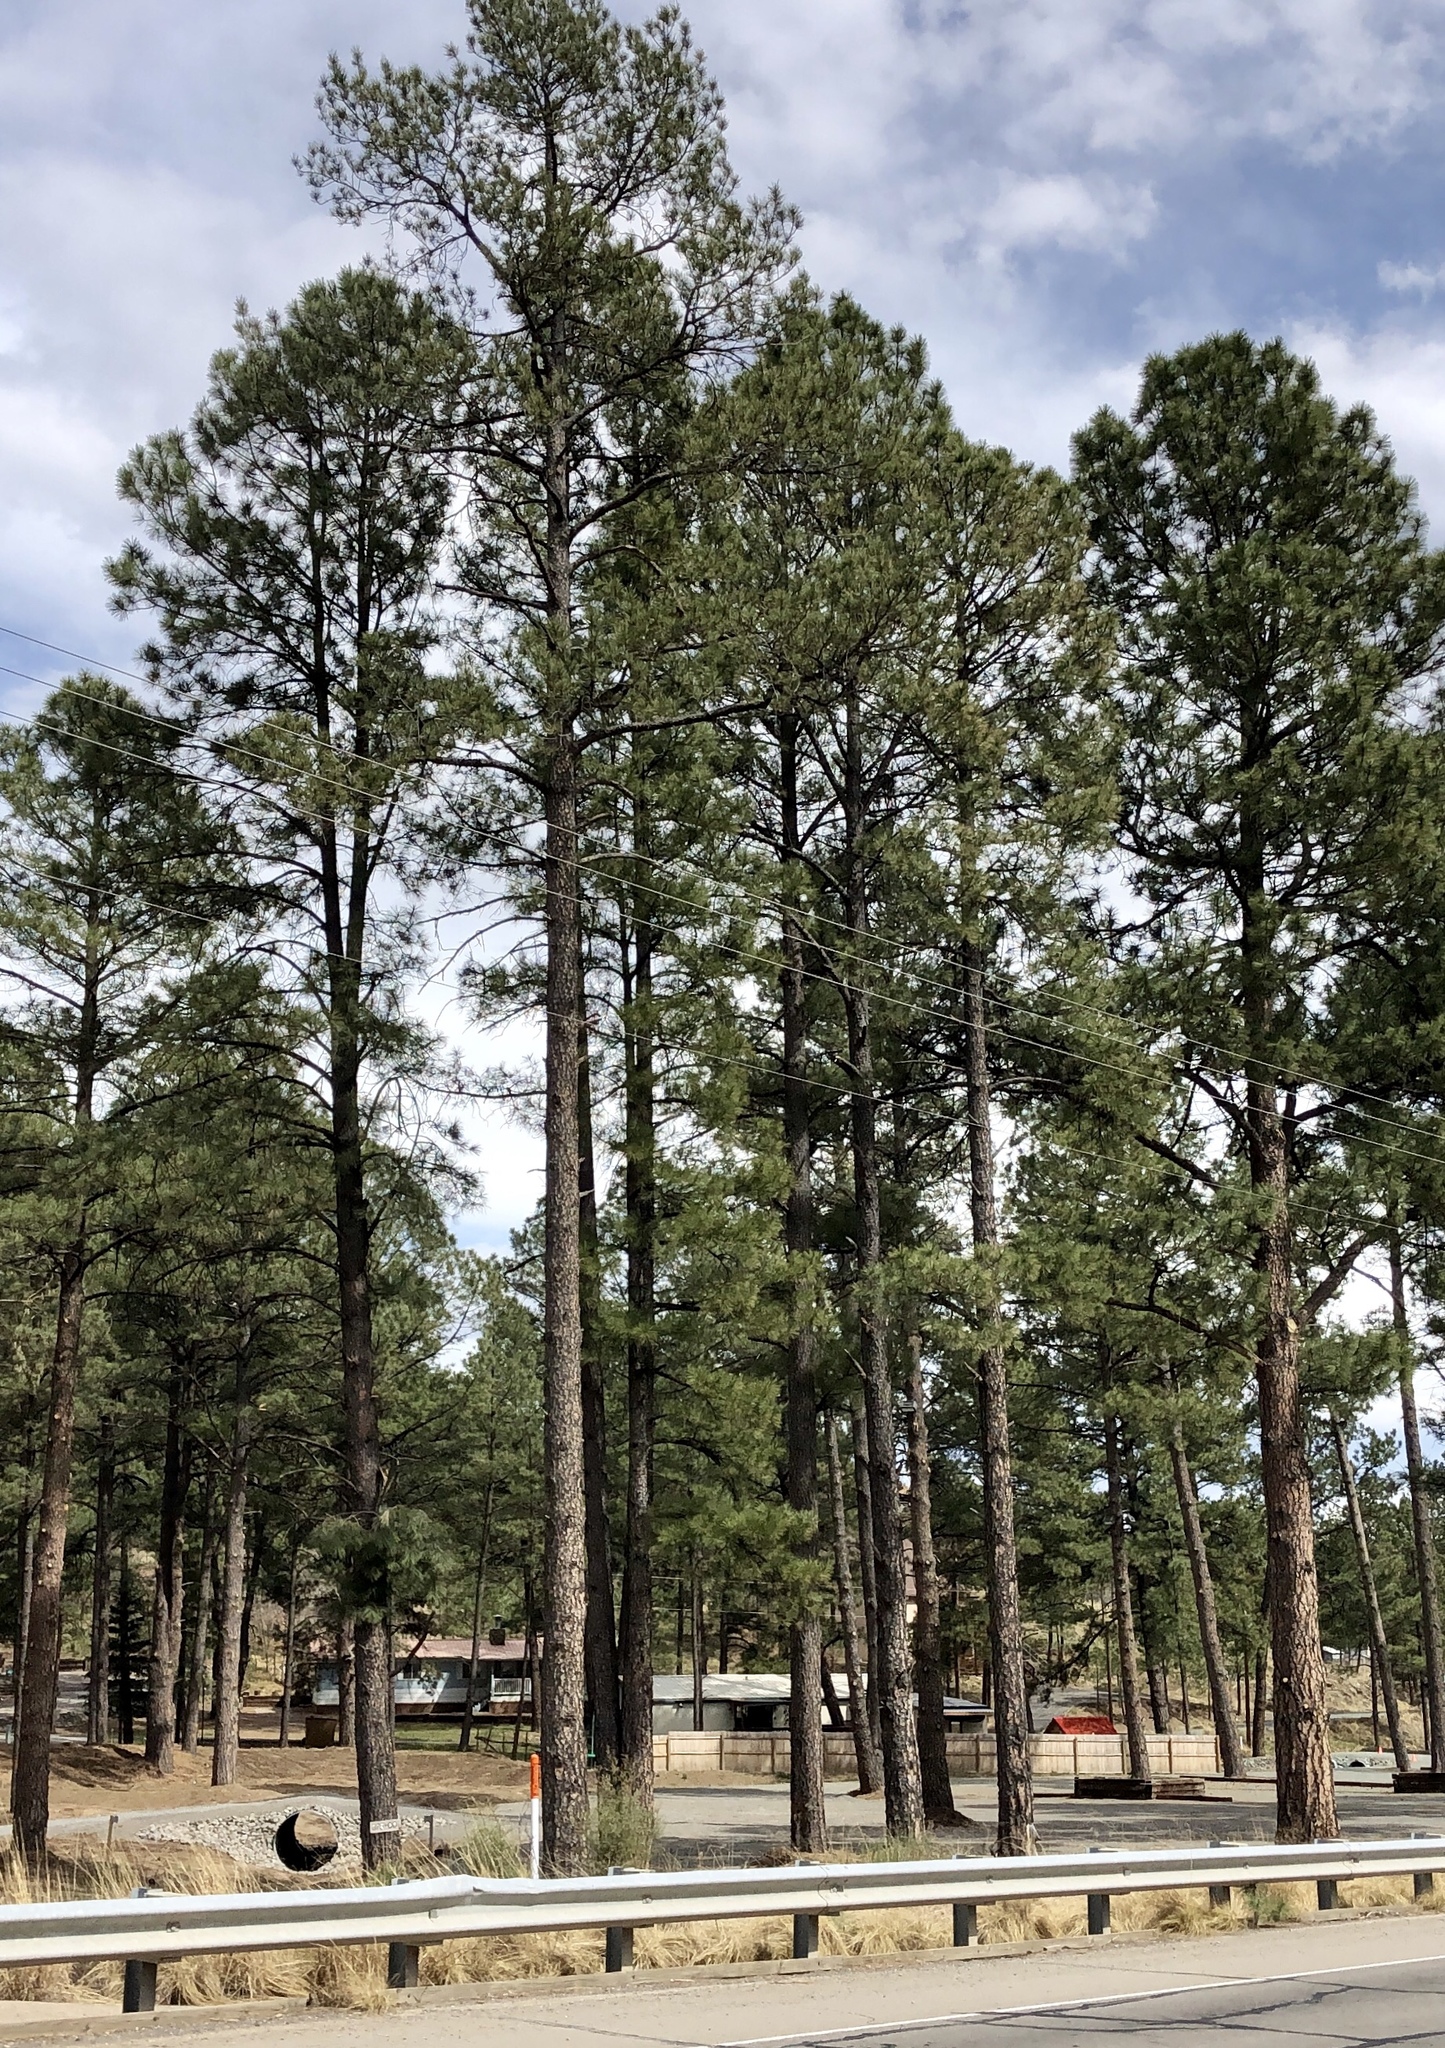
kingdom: Plantae
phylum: Tracheophyta
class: Pinopsida
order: Pinales
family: Pinaceae
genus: Pinus
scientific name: Pinus ponderosa
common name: Western yellow-pine
